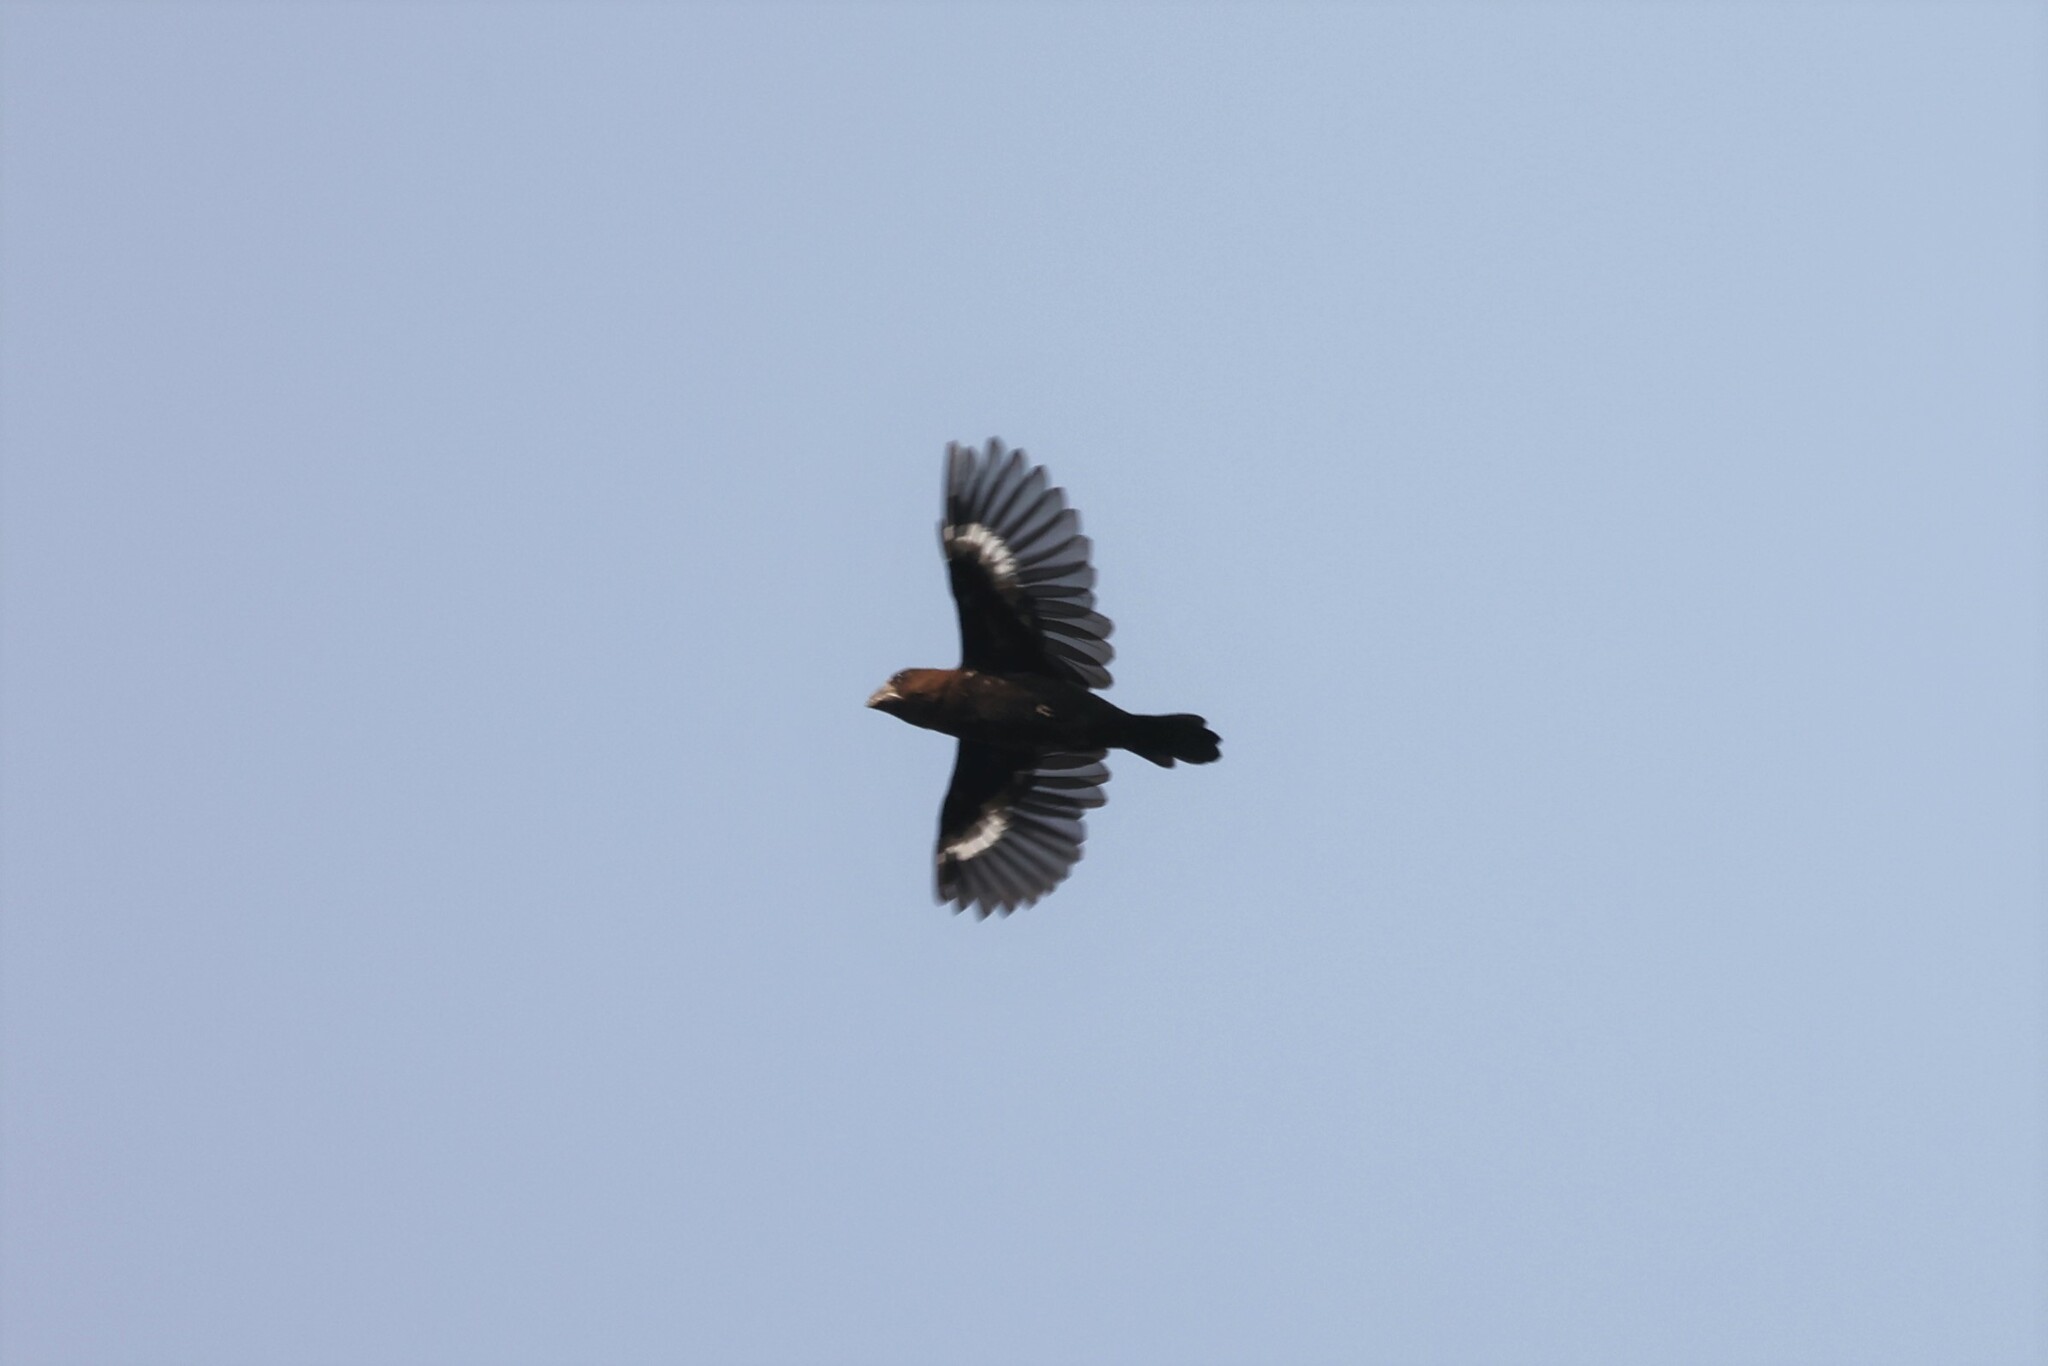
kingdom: Animalia
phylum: Chordata
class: Aves
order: Passeriformes
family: Ploceidae
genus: Amblyospiza
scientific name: Amblyospiza albifrons
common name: Thick-billed weaver
